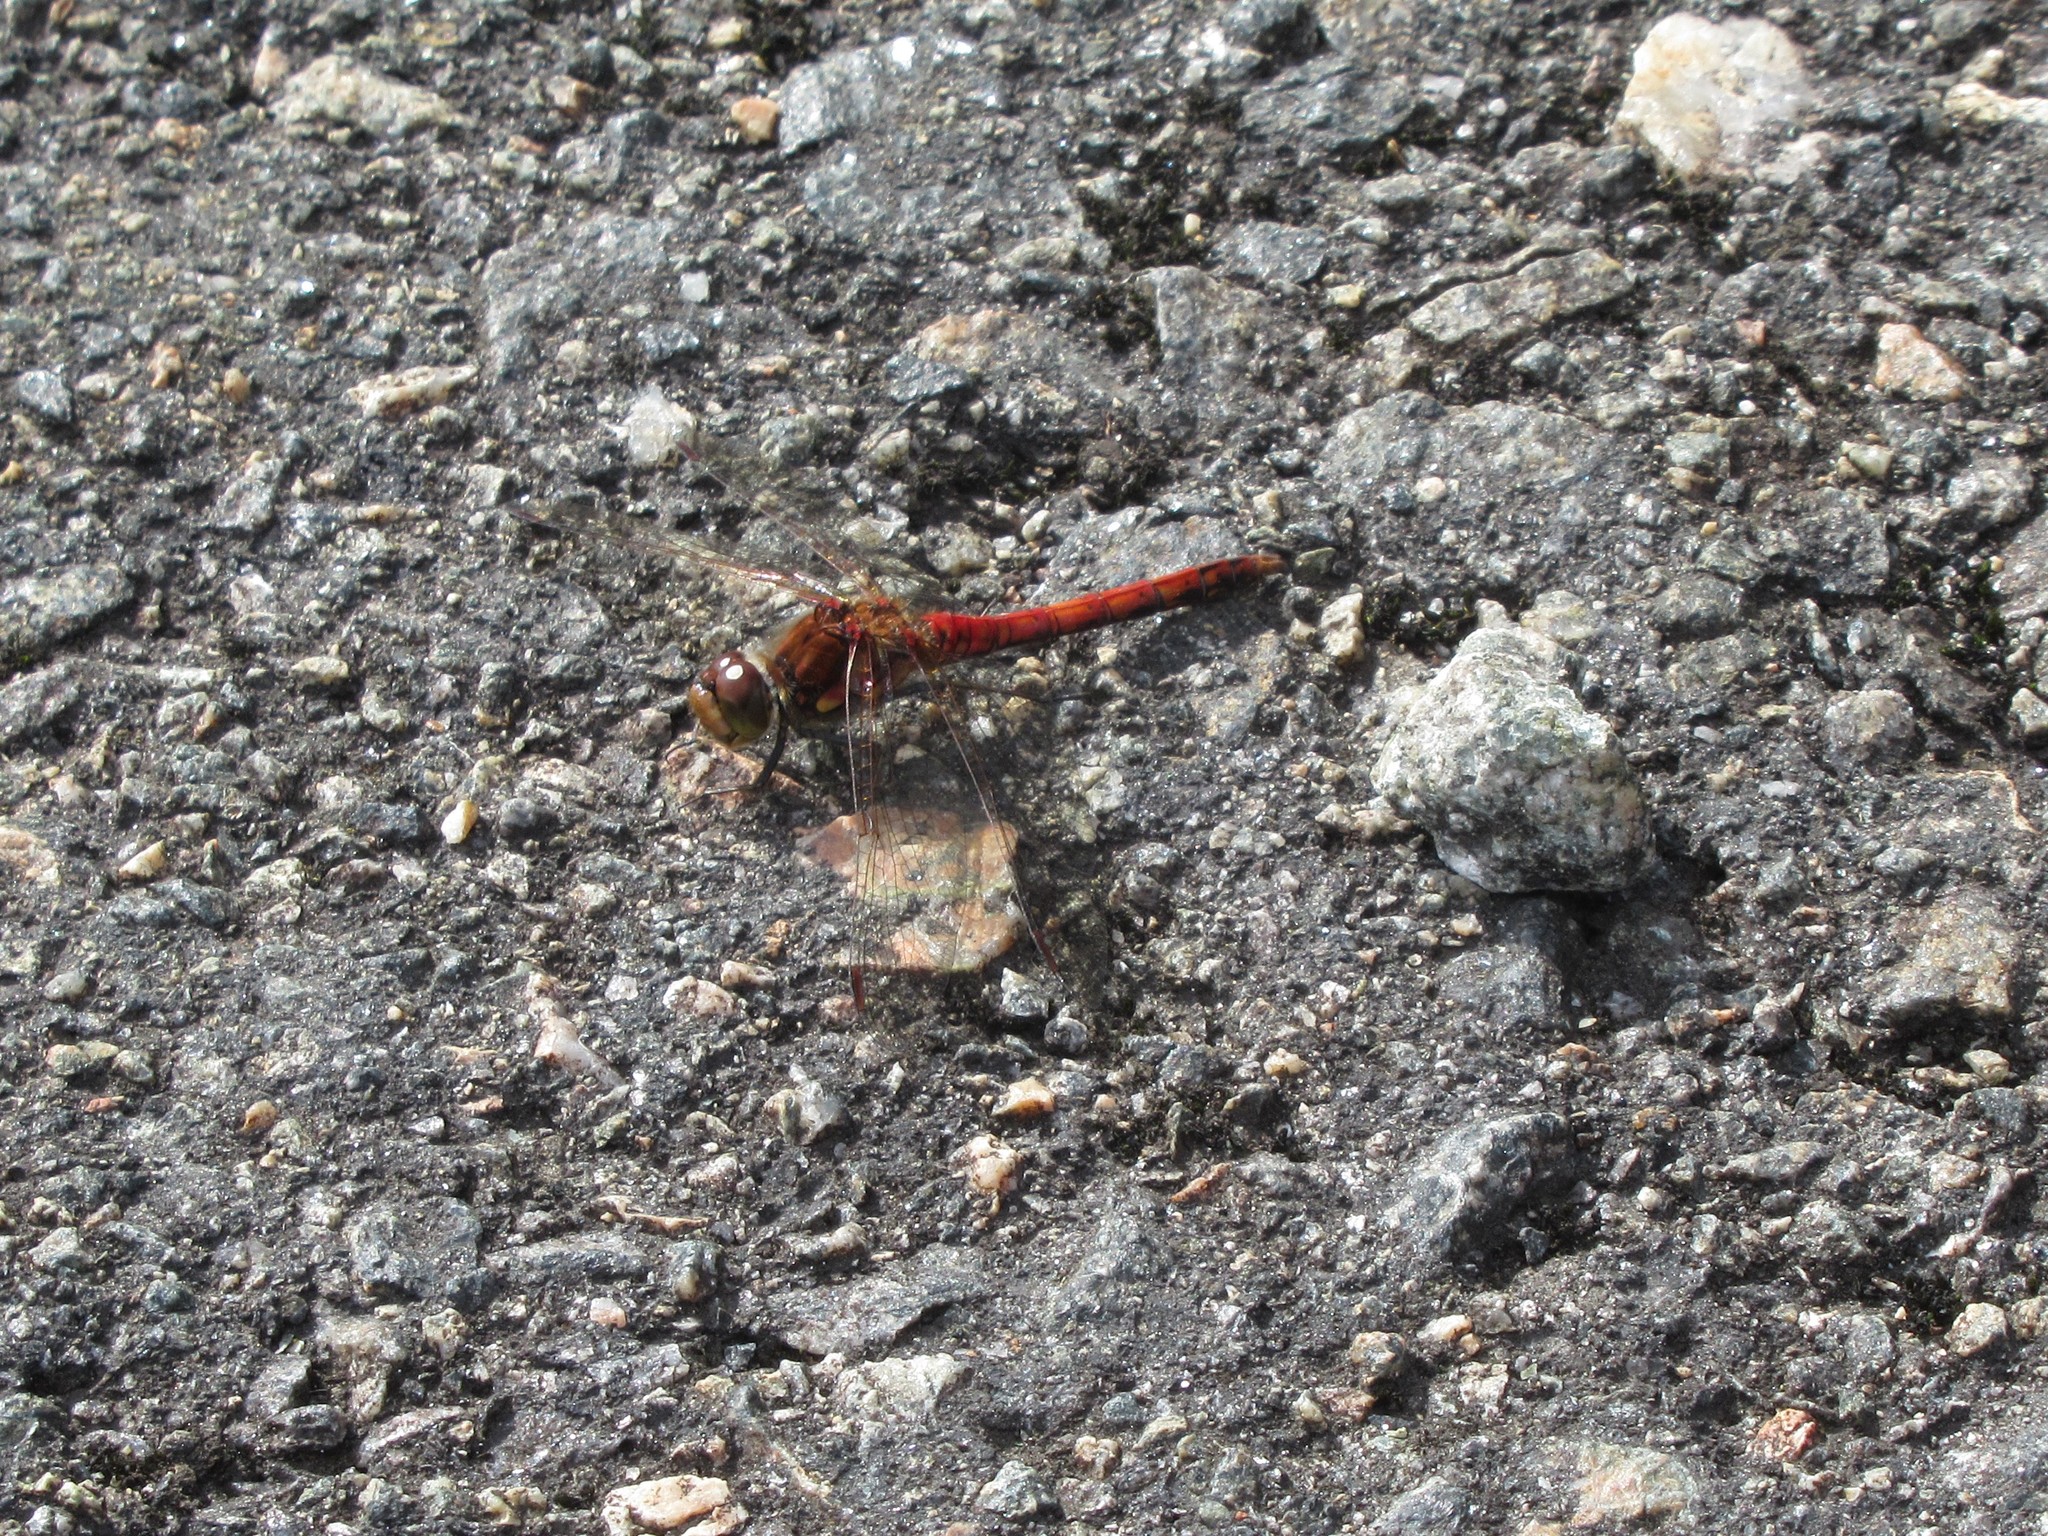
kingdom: Animalia
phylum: Arthropoda
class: Insecta
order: Odonata
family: Libellulidae
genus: Sympetrum
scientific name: Sympetrum striolatum
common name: Common darter
